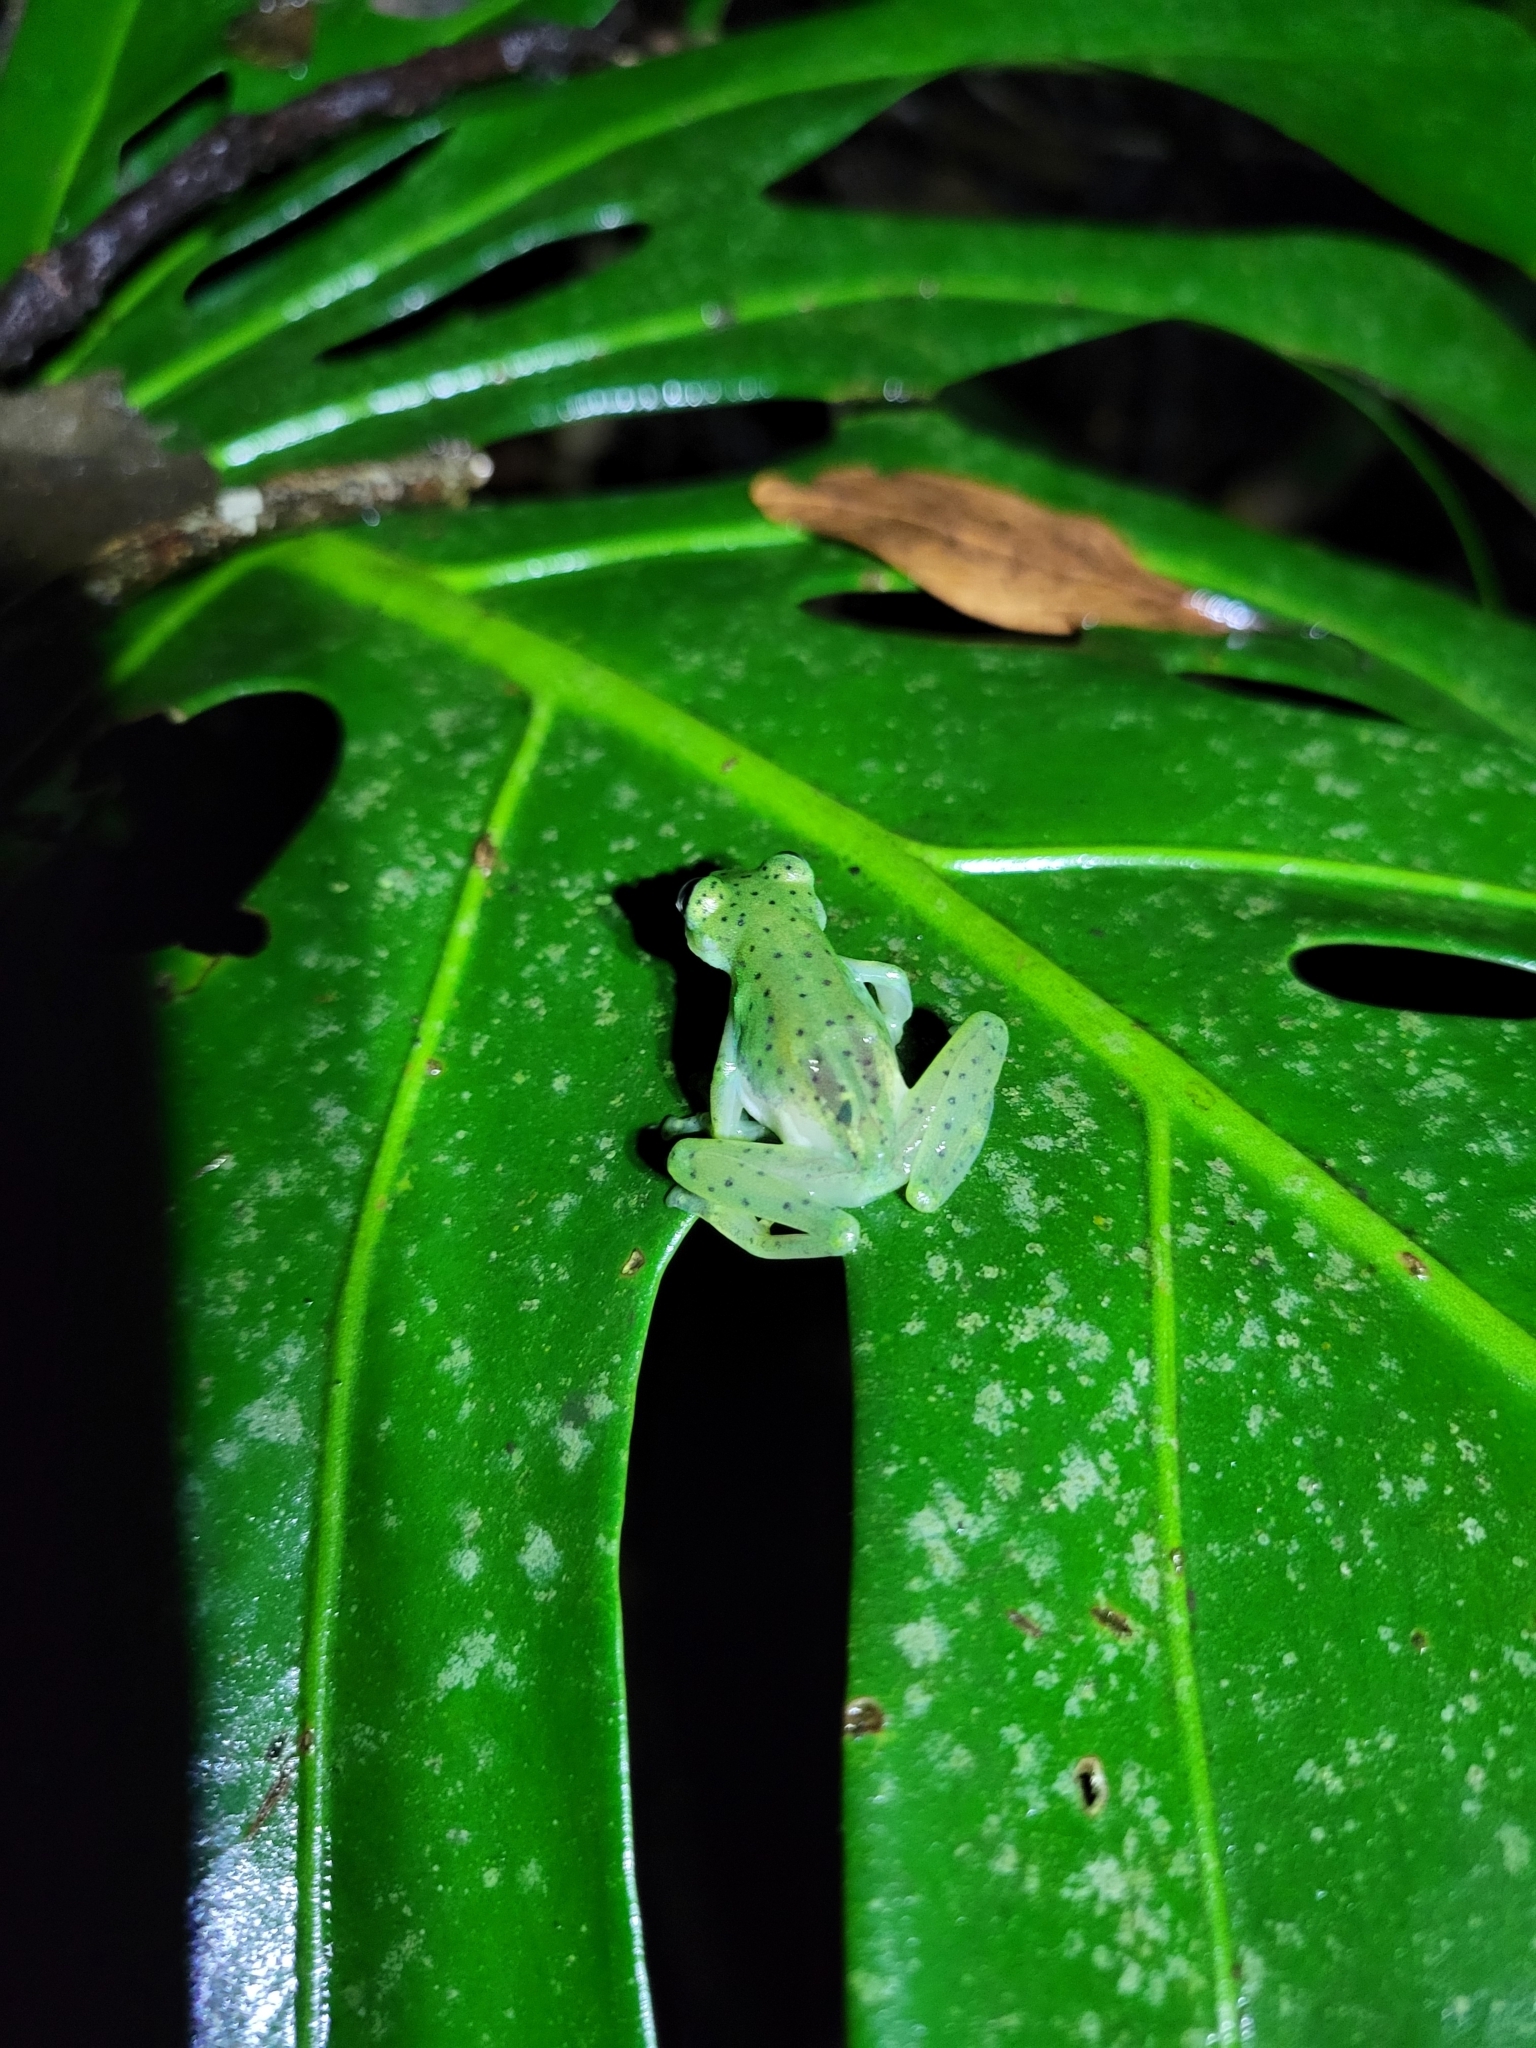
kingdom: Animalia
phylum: Chordata
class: Amphibia
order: Anura
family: Centrolenidae
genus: Espadarana
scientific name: Espadarana prosoblepon
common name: Rana de cristal variable
